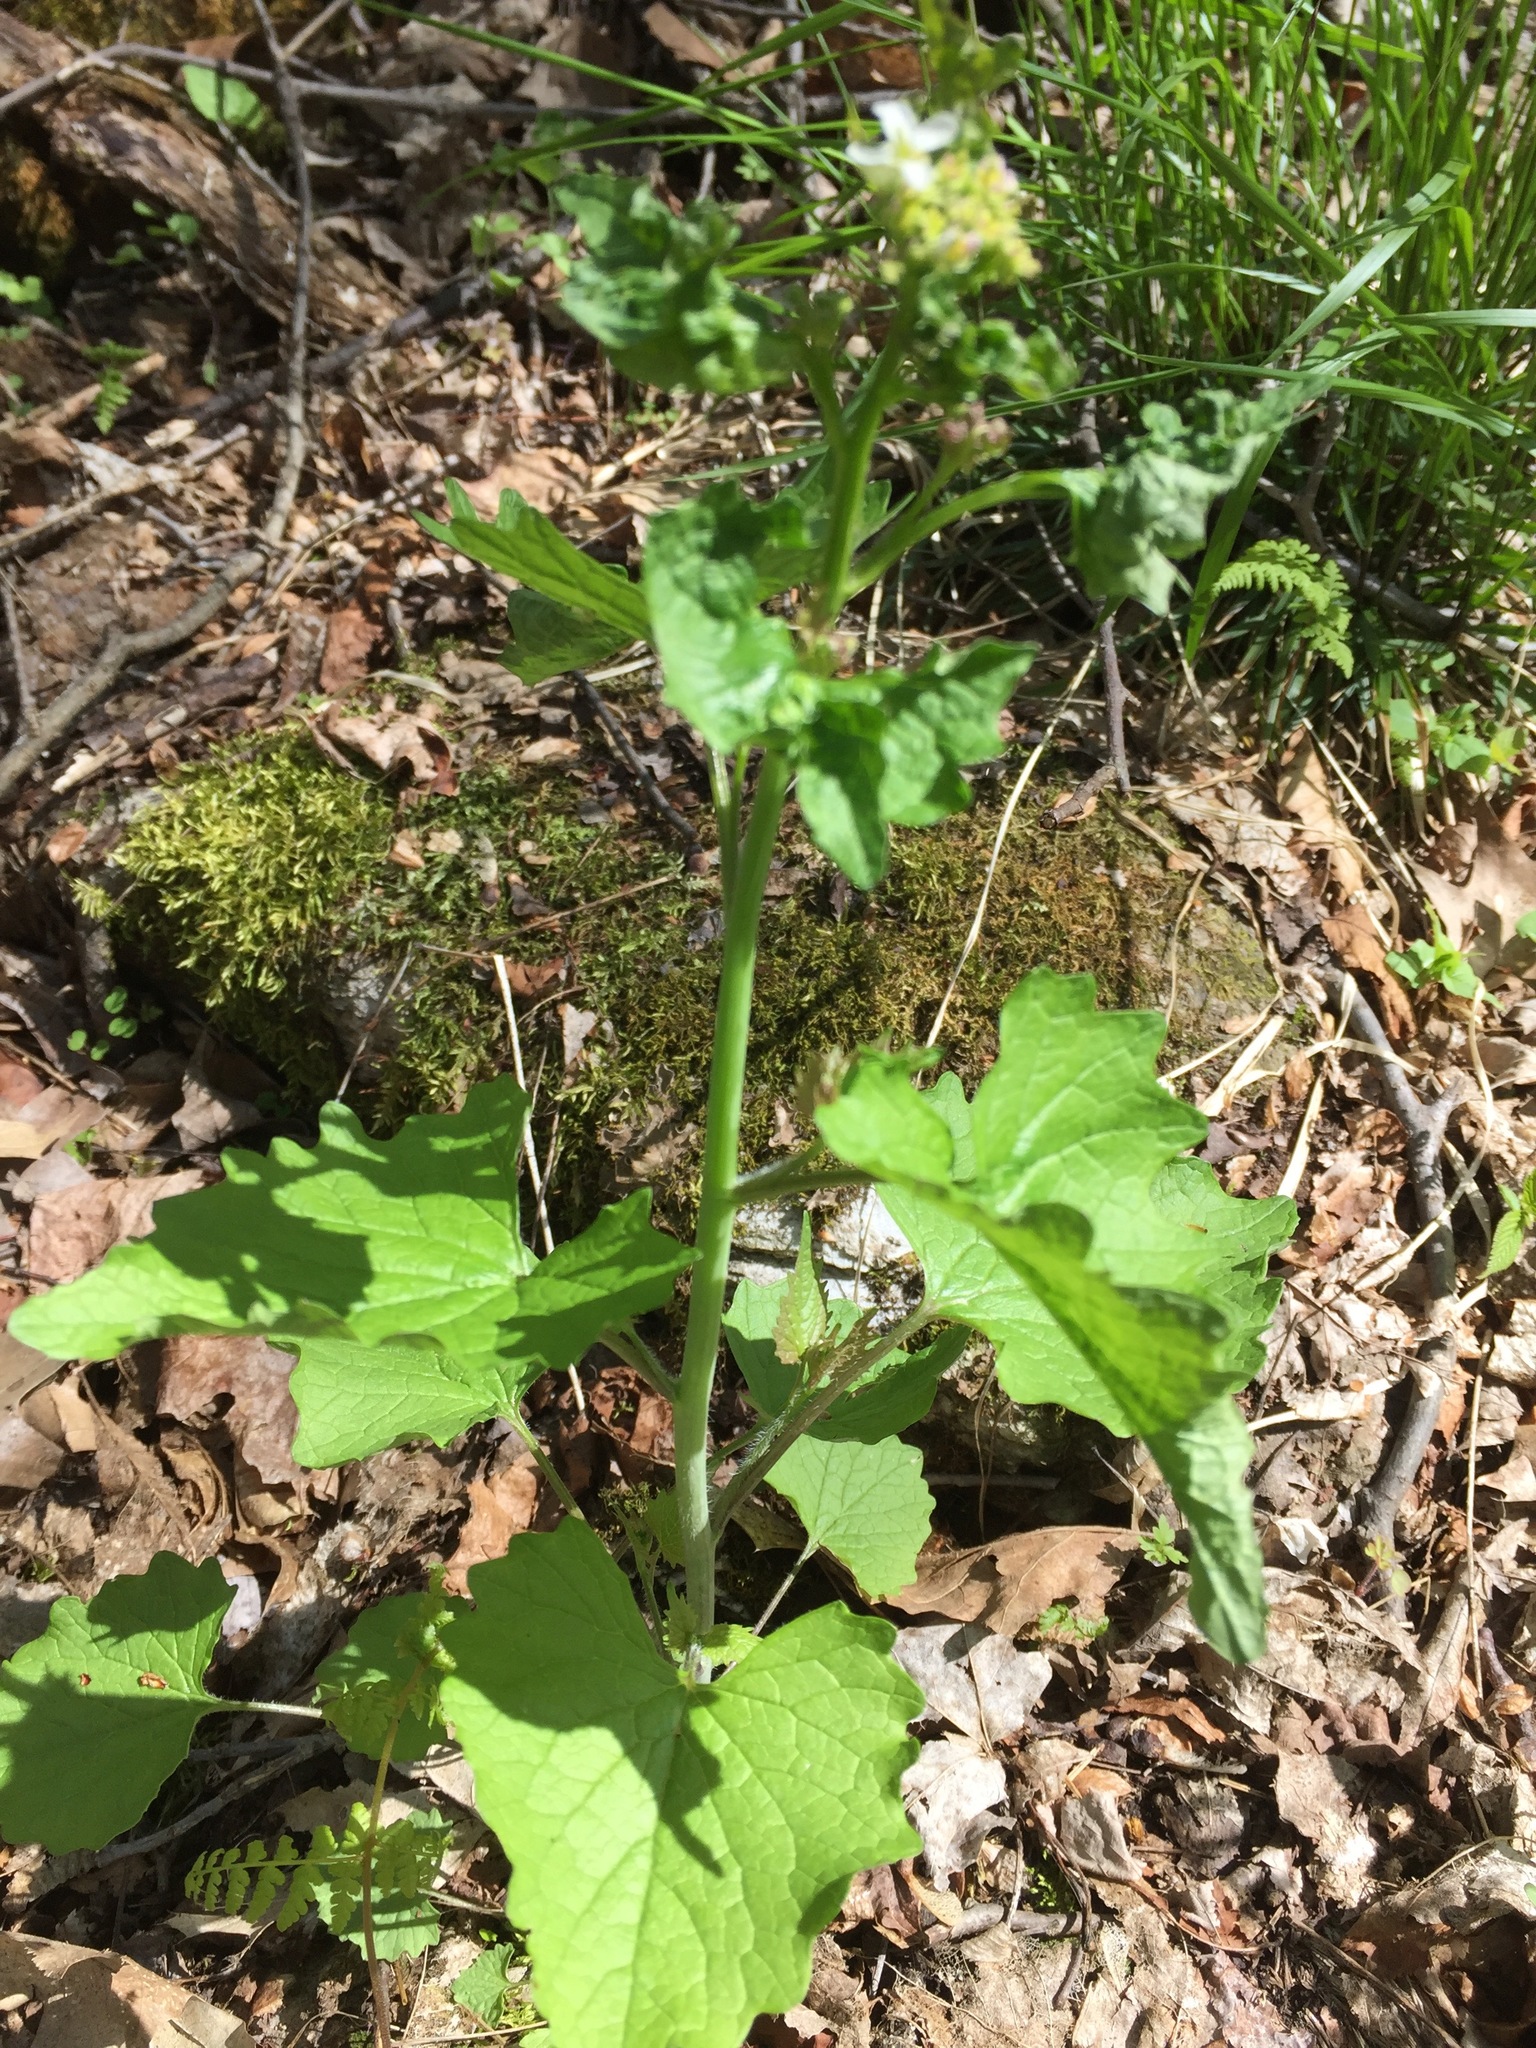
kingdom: Plantae
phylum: Tracheophyta
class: Magnoliopsida
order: Brassicales
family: Brassicaceae
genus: Alliaria
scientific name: Alliaria petiolata
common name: Garlic mustard
